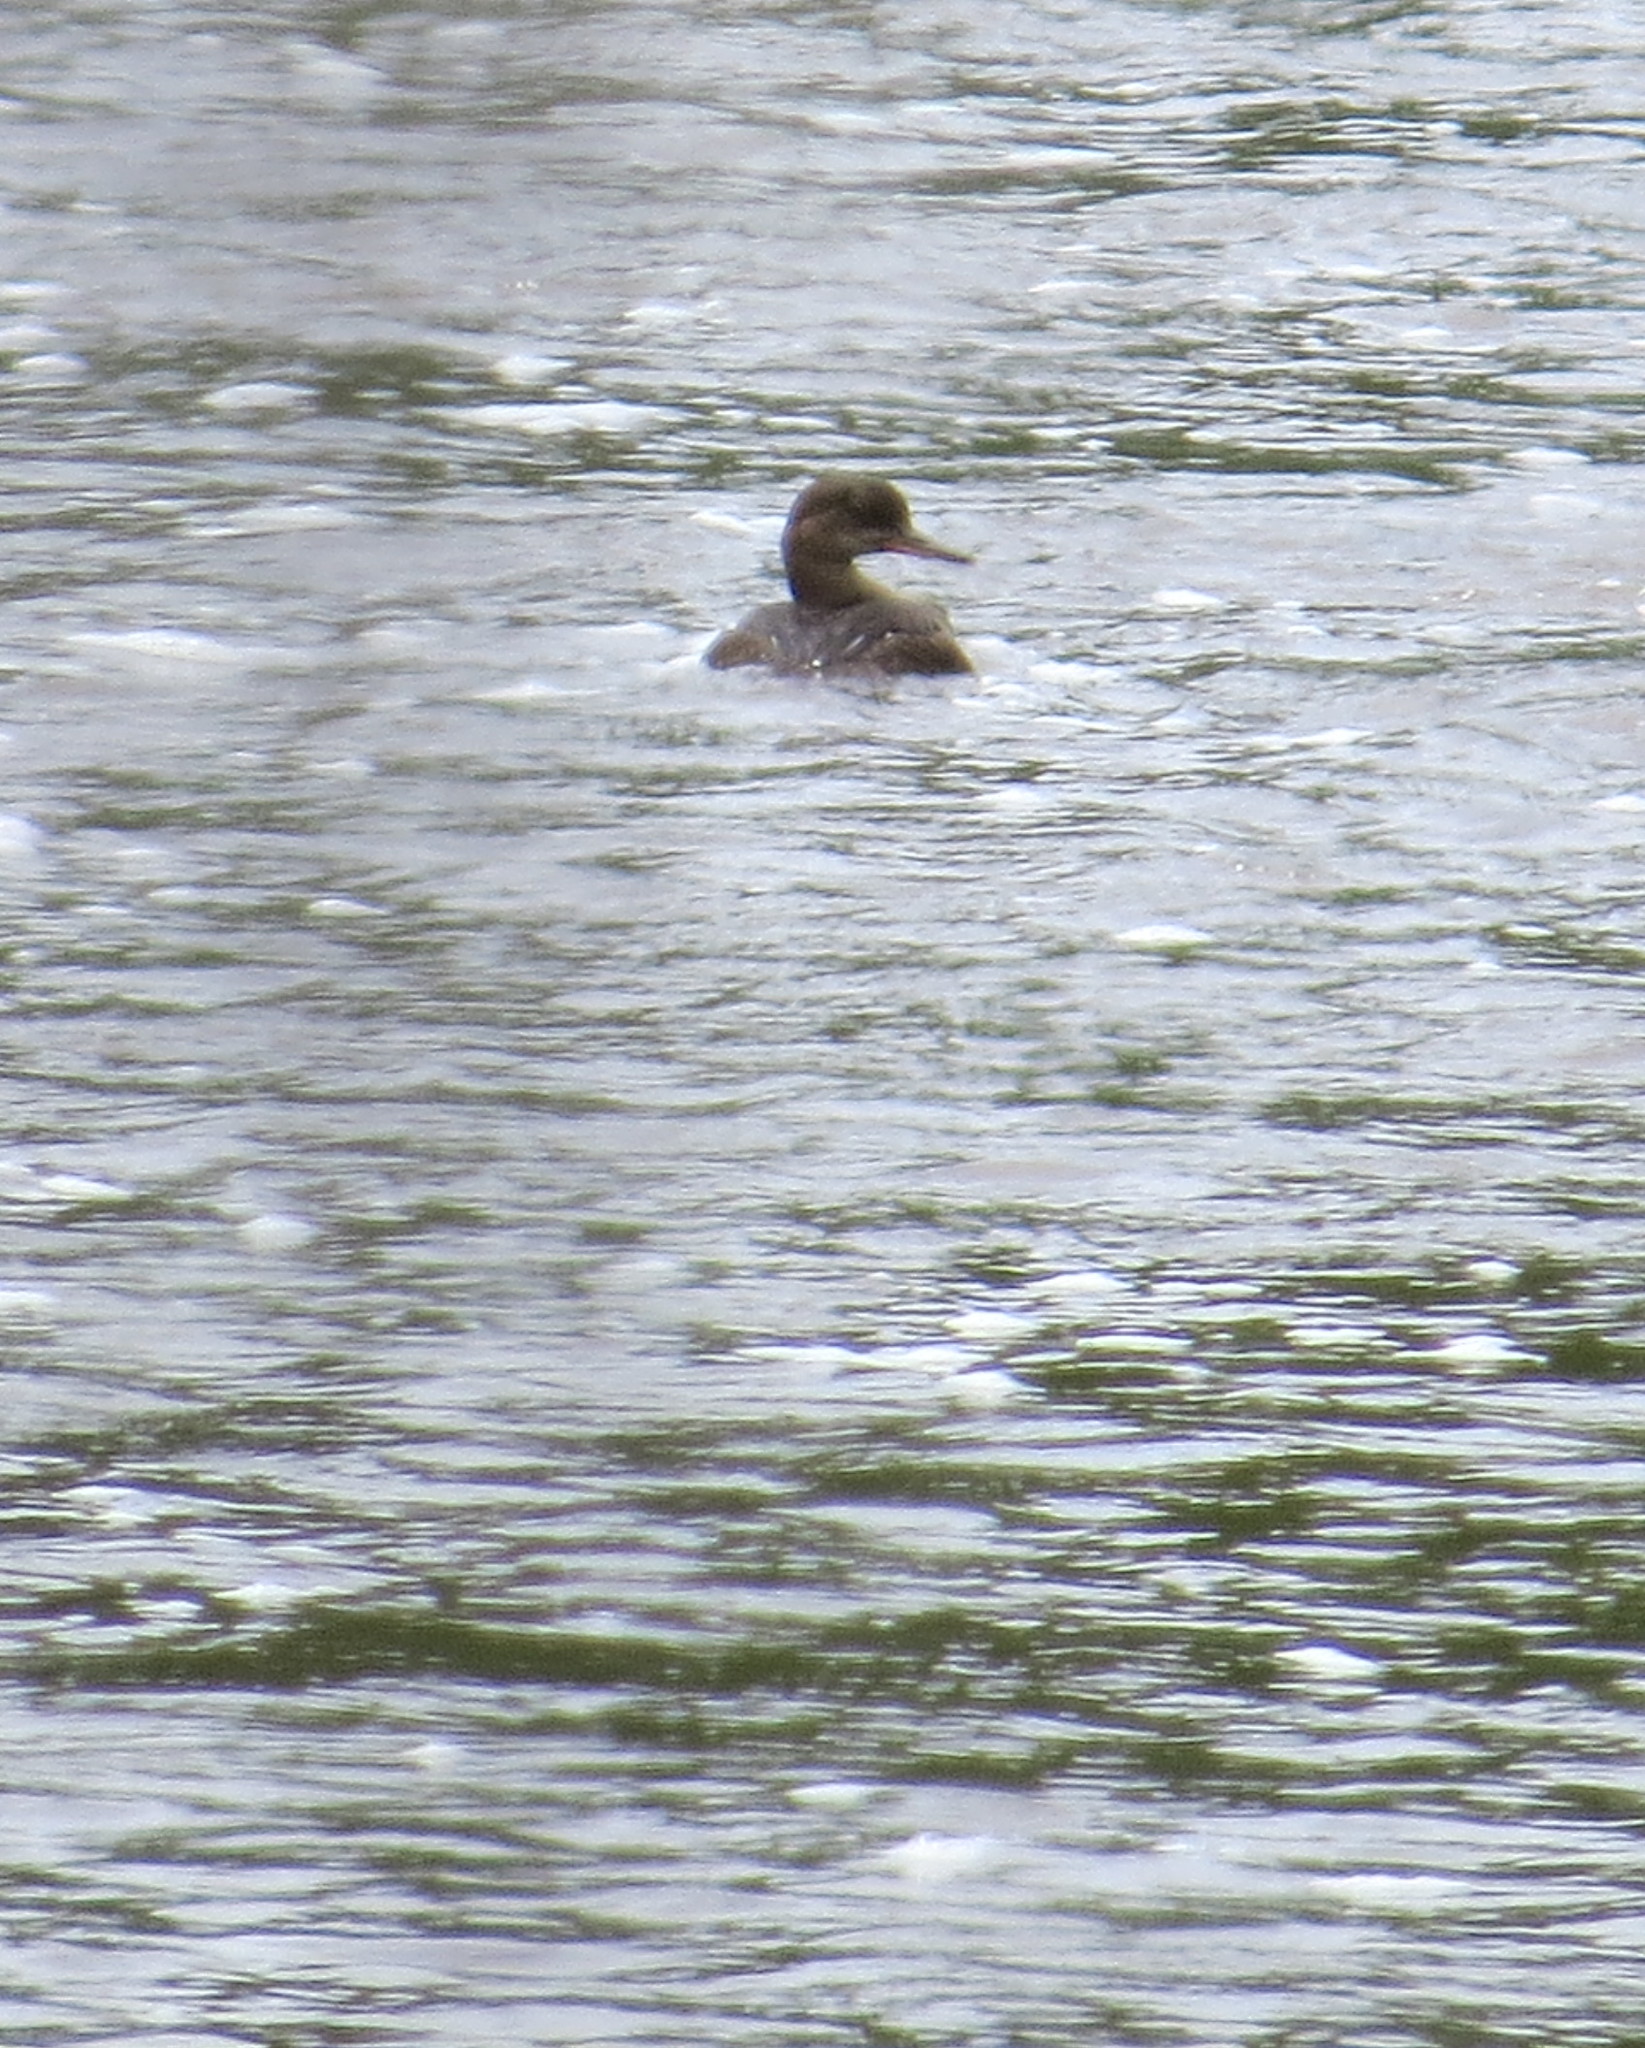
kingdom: Animalia
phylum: Chordata
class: Aves
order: Anseriformes
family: Anatidae
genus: Lophodytes
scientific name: Lophodytes cucullatus
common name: Hooded merganser
